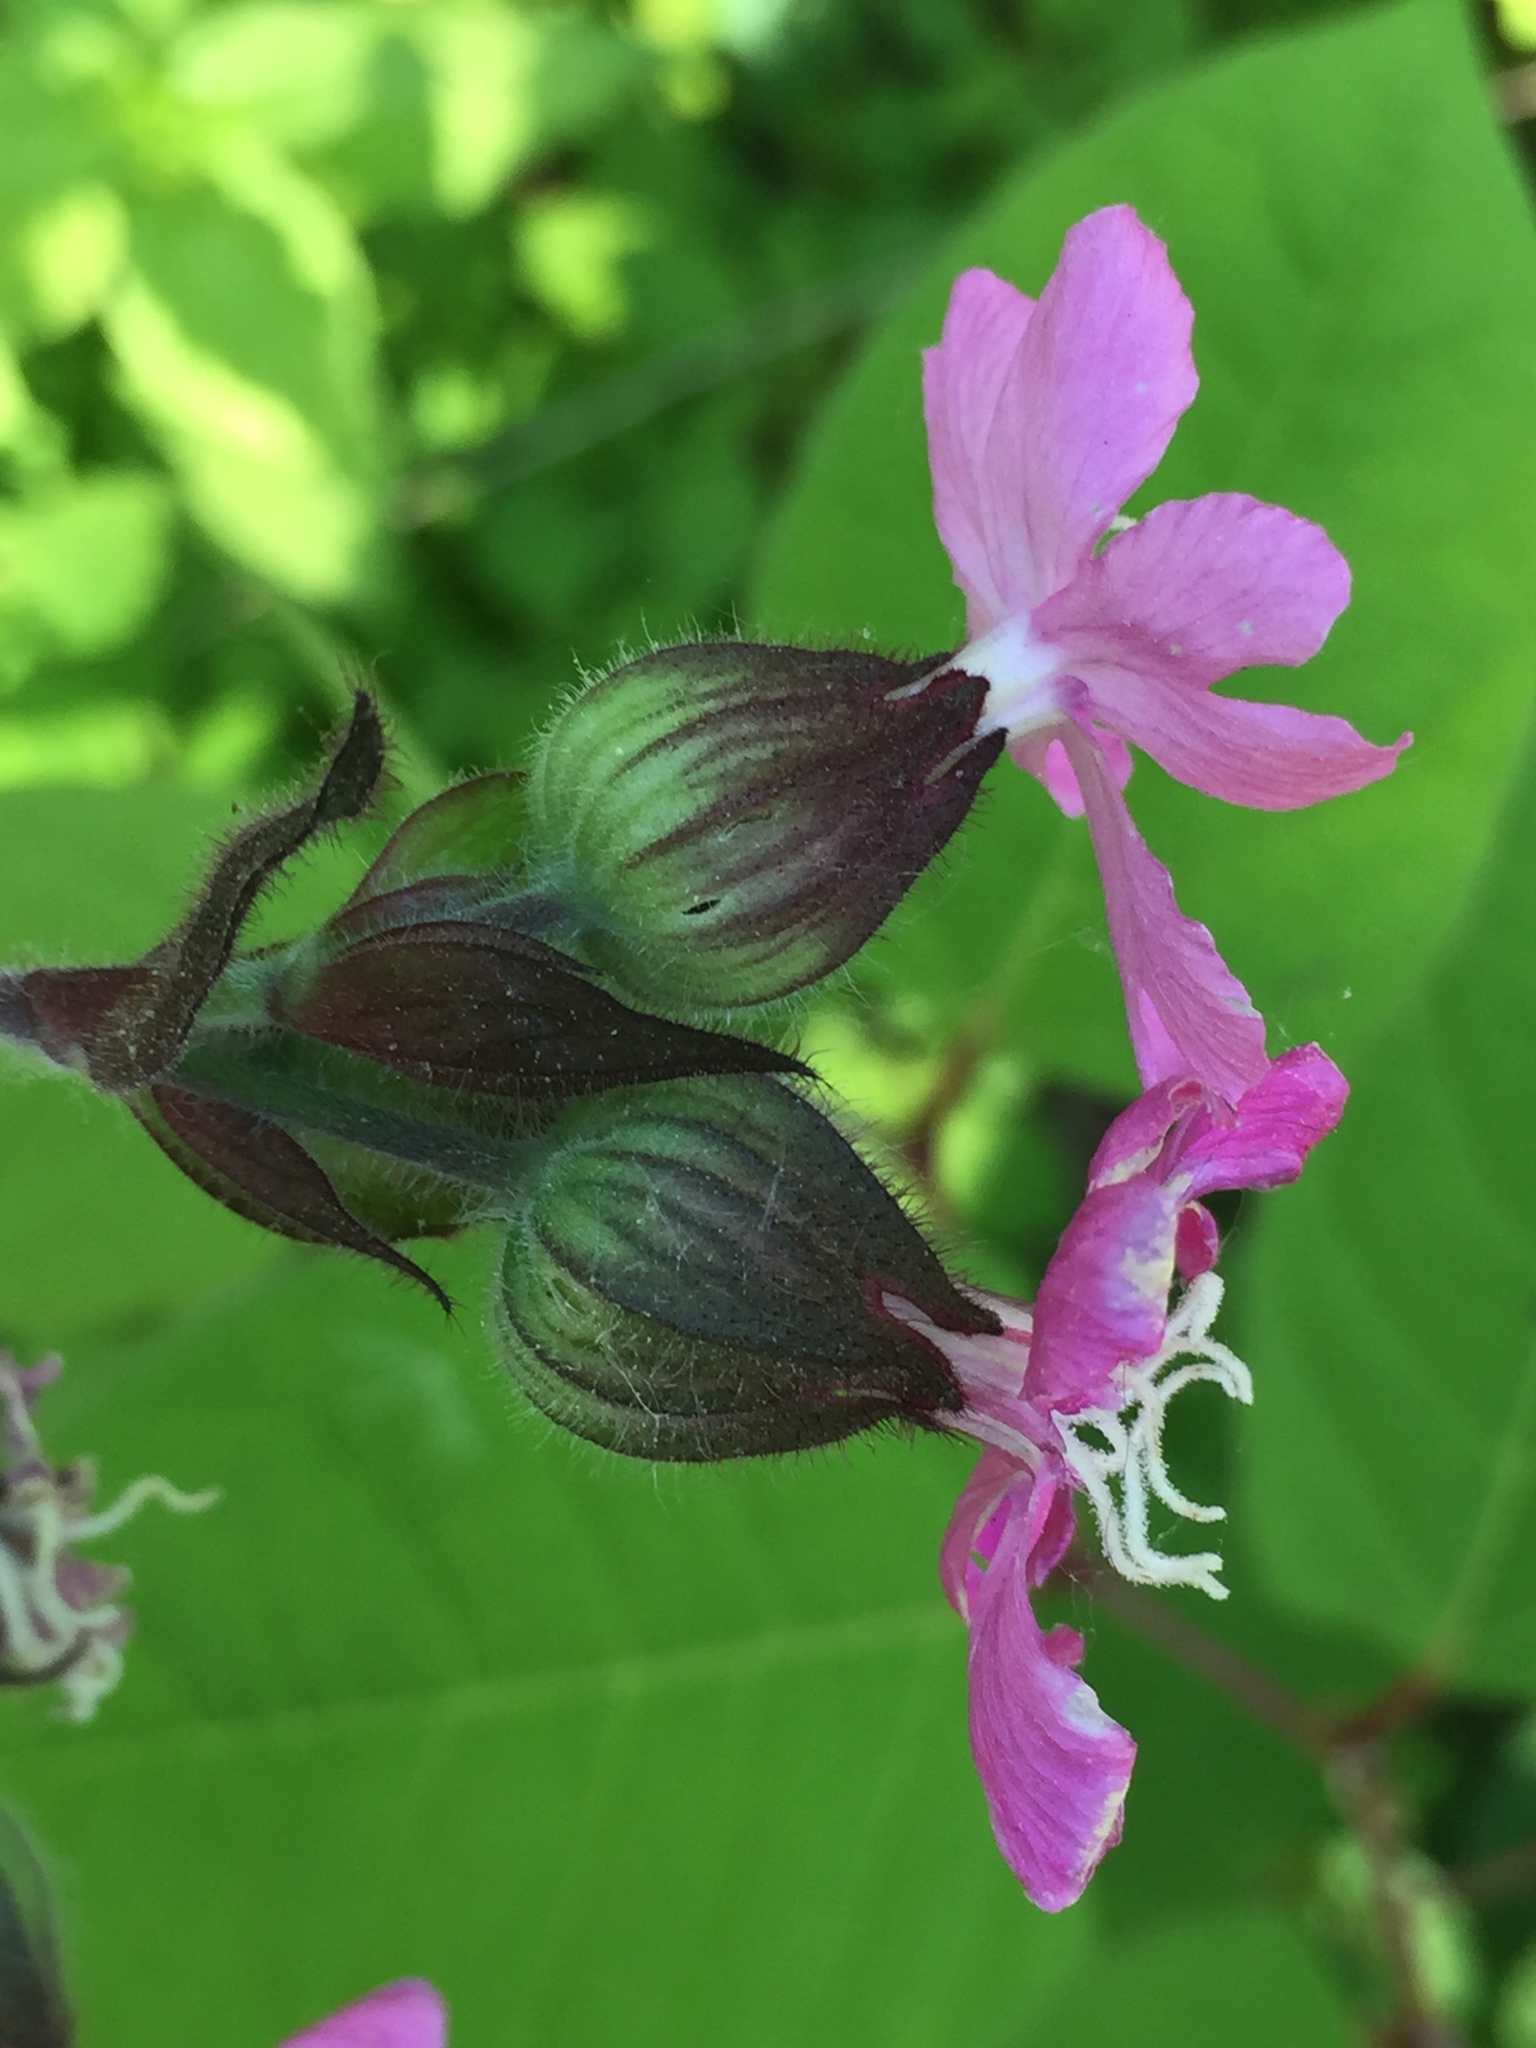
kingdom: Plantae
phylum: Tracheophyta
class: Magnoliopsida
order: Caryophyllales
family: Caryophyllaceae
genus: Silene
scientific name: Silene dioica
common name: Red campion
